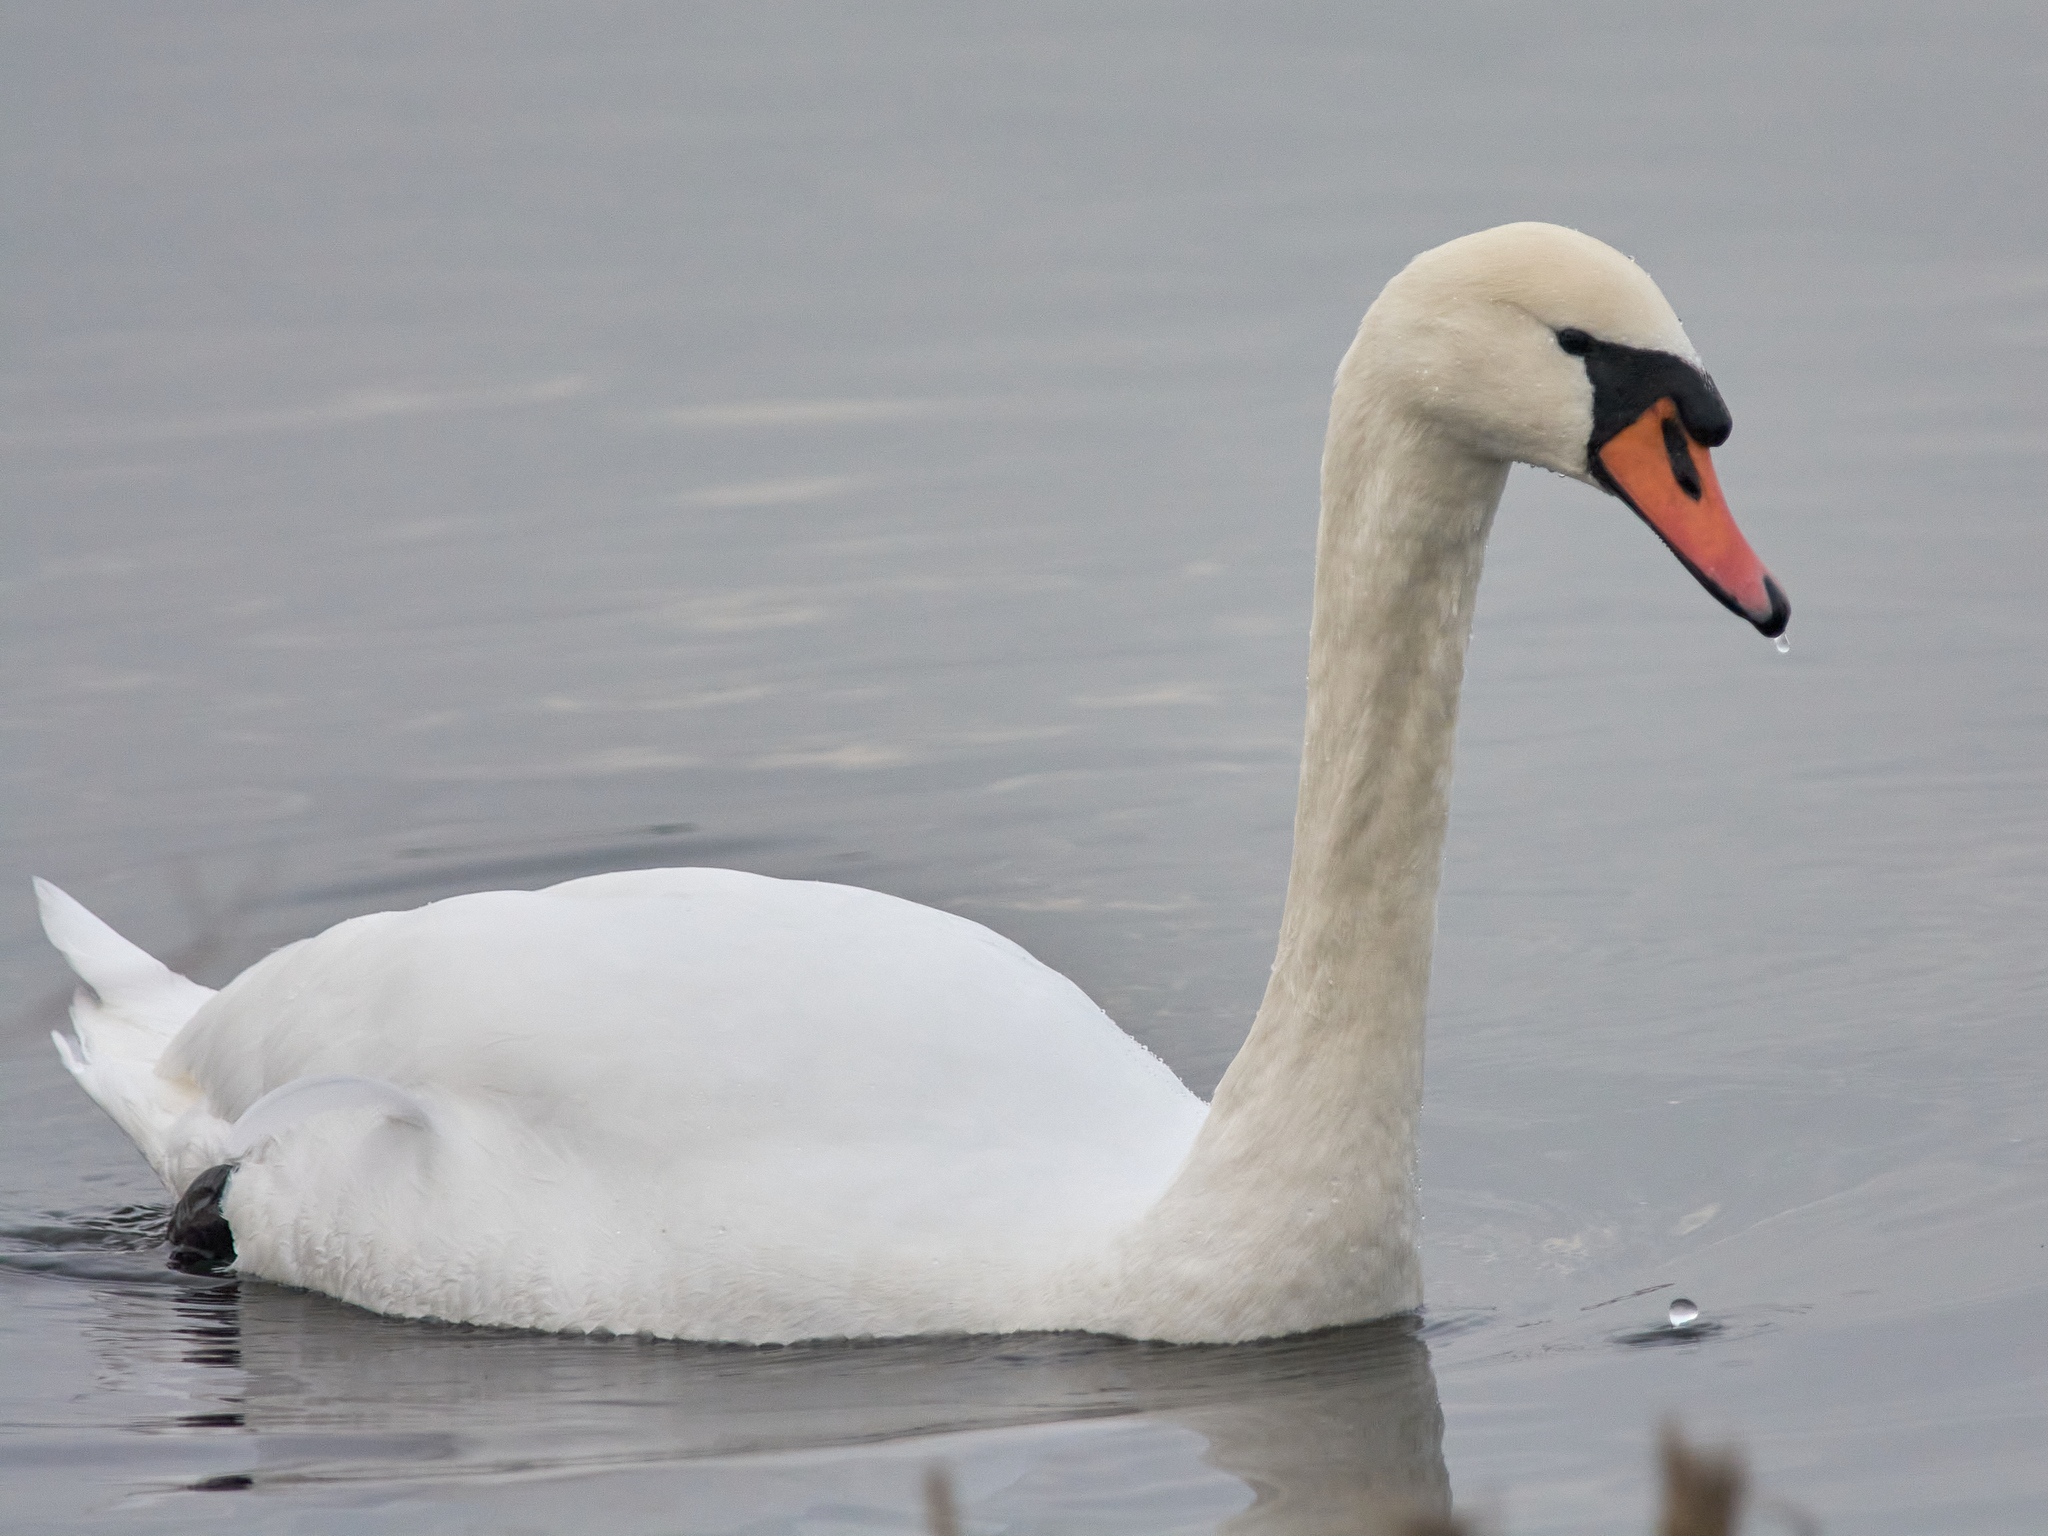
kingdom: Animalia
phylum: Chordata
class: Aves
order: Anseriformes
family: Anatidae
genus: Cygnus
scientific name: Cygnus olor
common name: Mute swan
